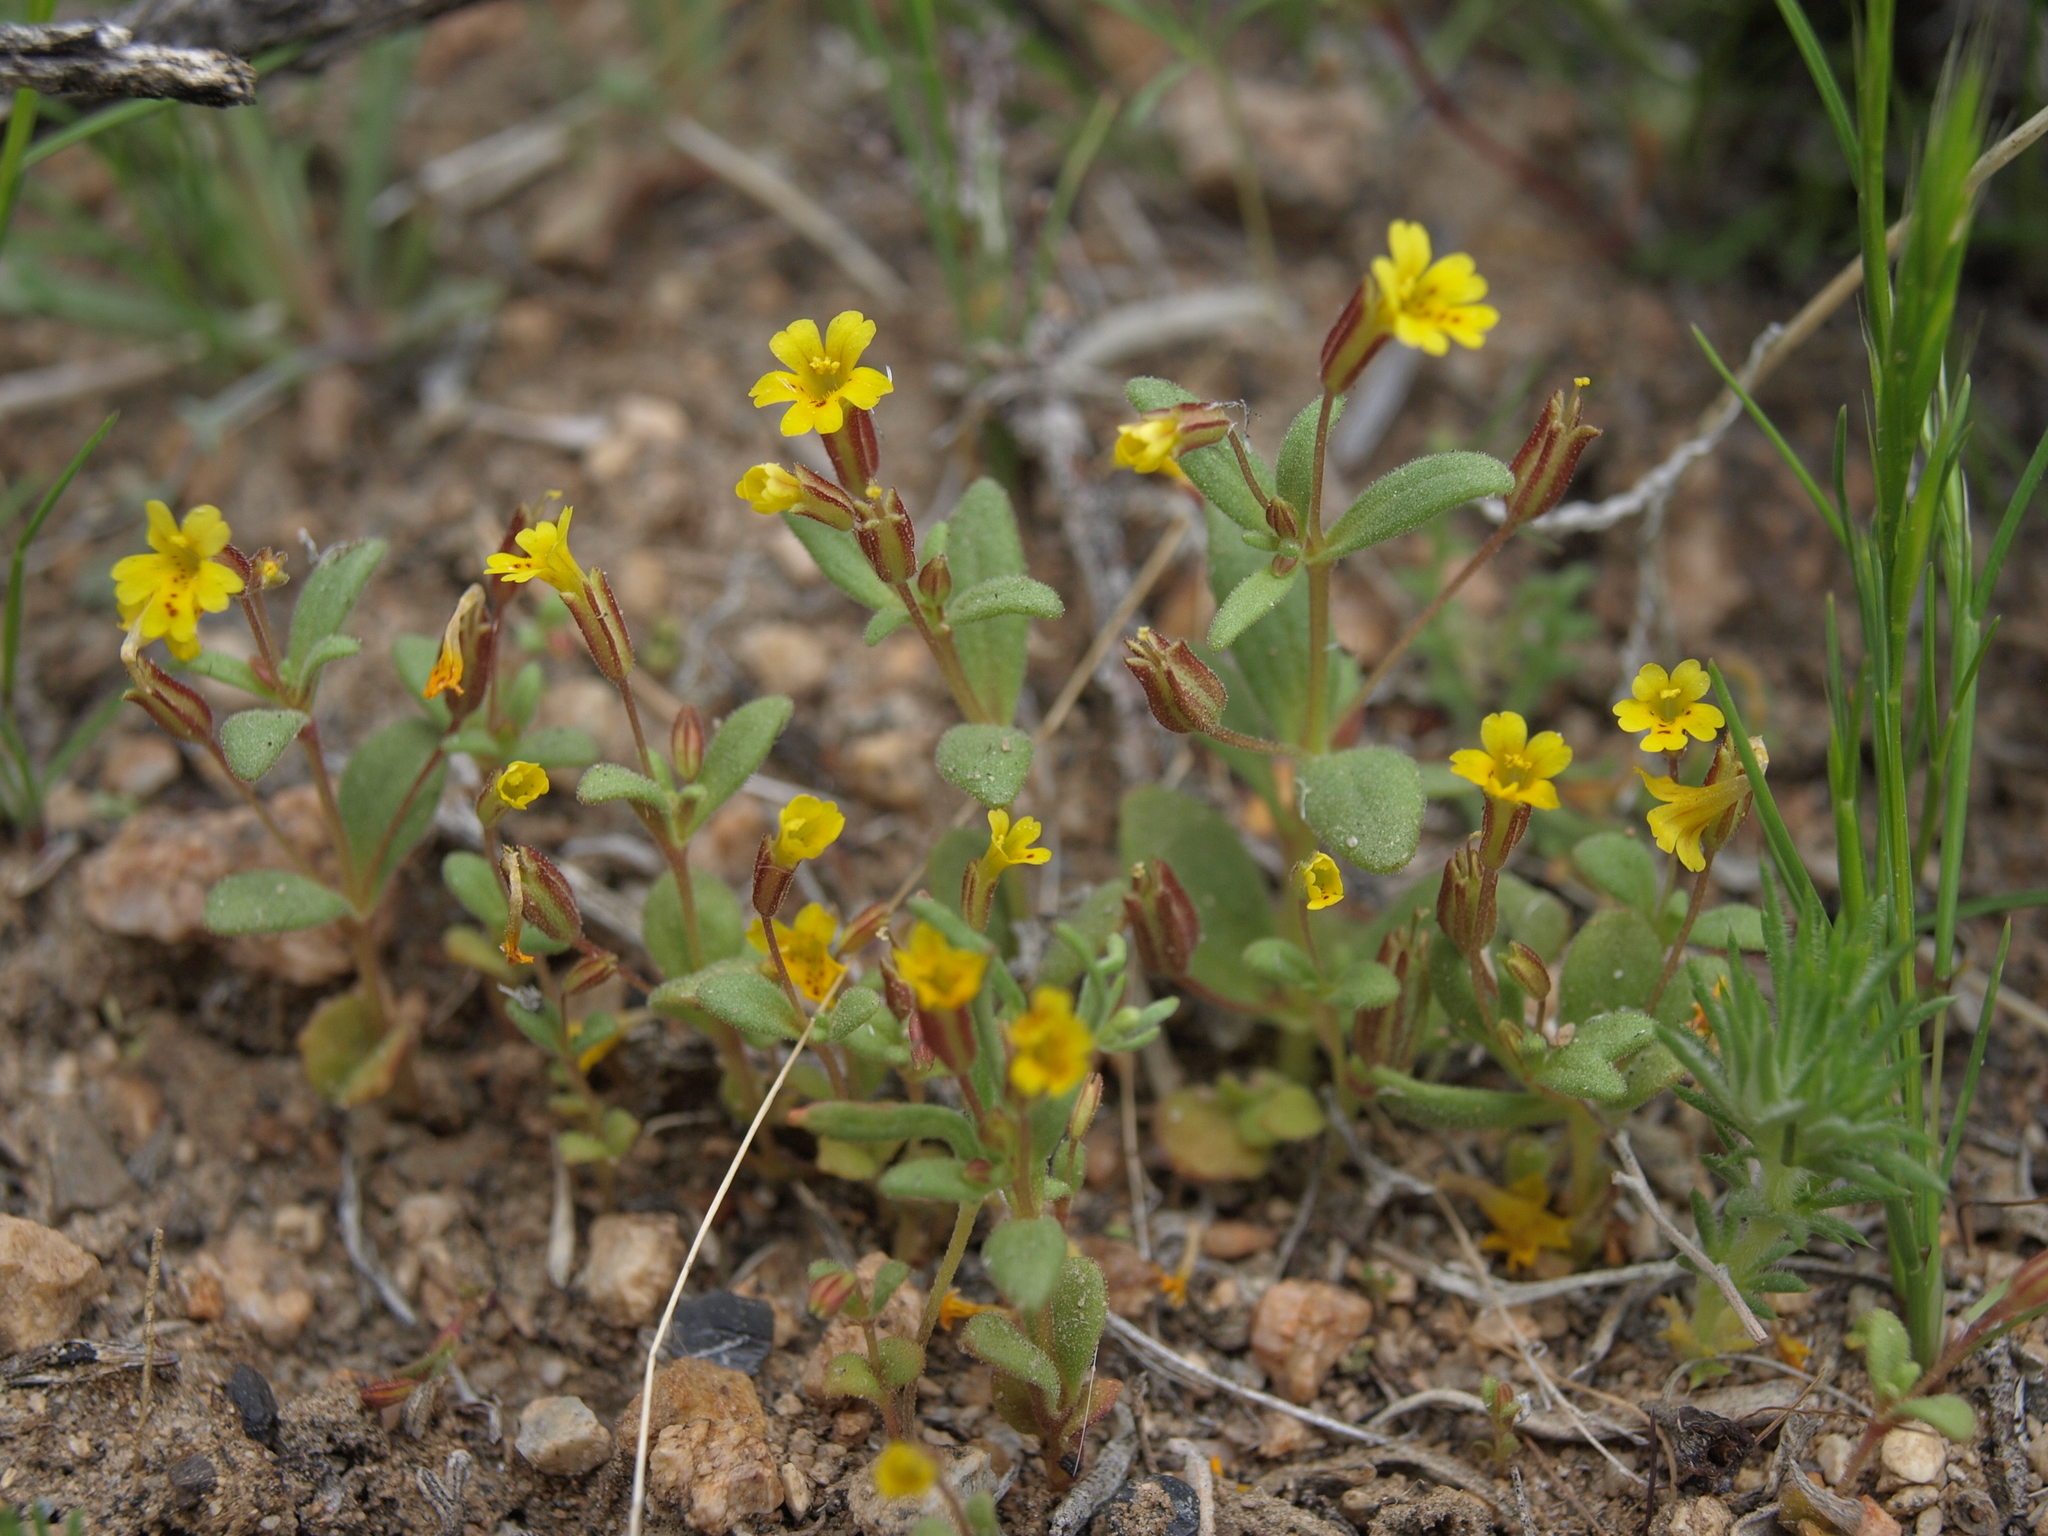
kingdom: Plantae
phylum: Tracheophyta
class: Magnoliopsida
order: Lamiales
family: Phrymaceae
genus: Erythranthe
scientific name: Erythranthe rubella
